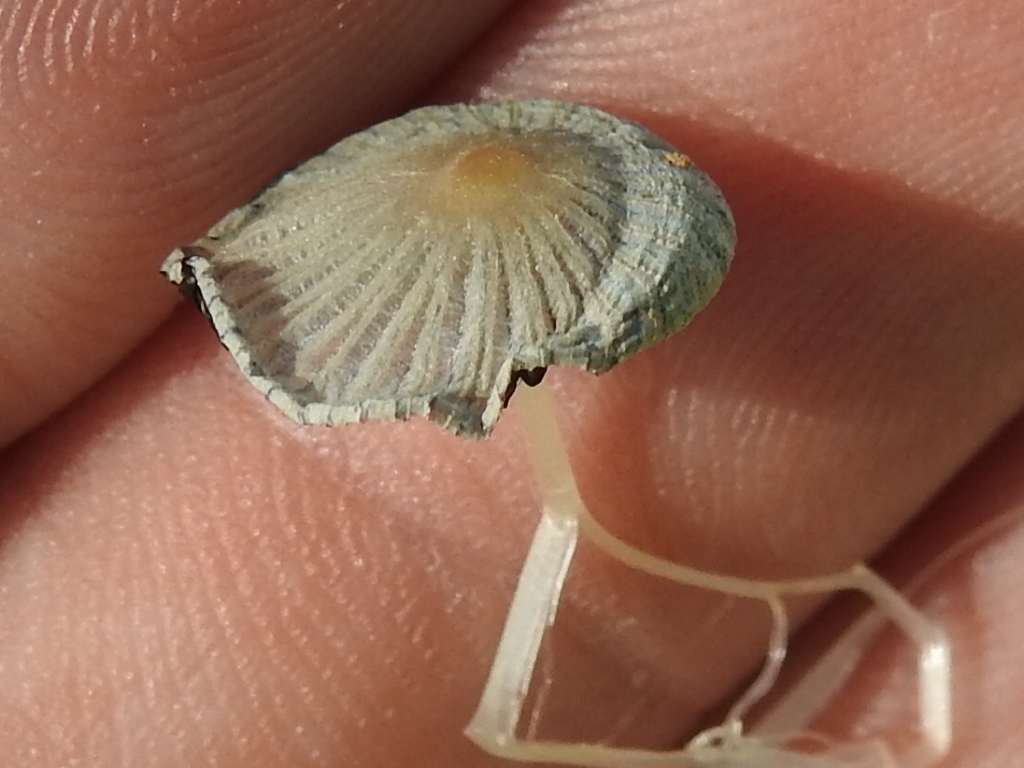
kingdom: Fungi
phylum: Basidiomycota
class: Agaricomycetes
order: Agaricales
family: Psathyrellaceae
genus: Parasola
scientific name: Parasola plicatilis
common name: Pleated inkcap
